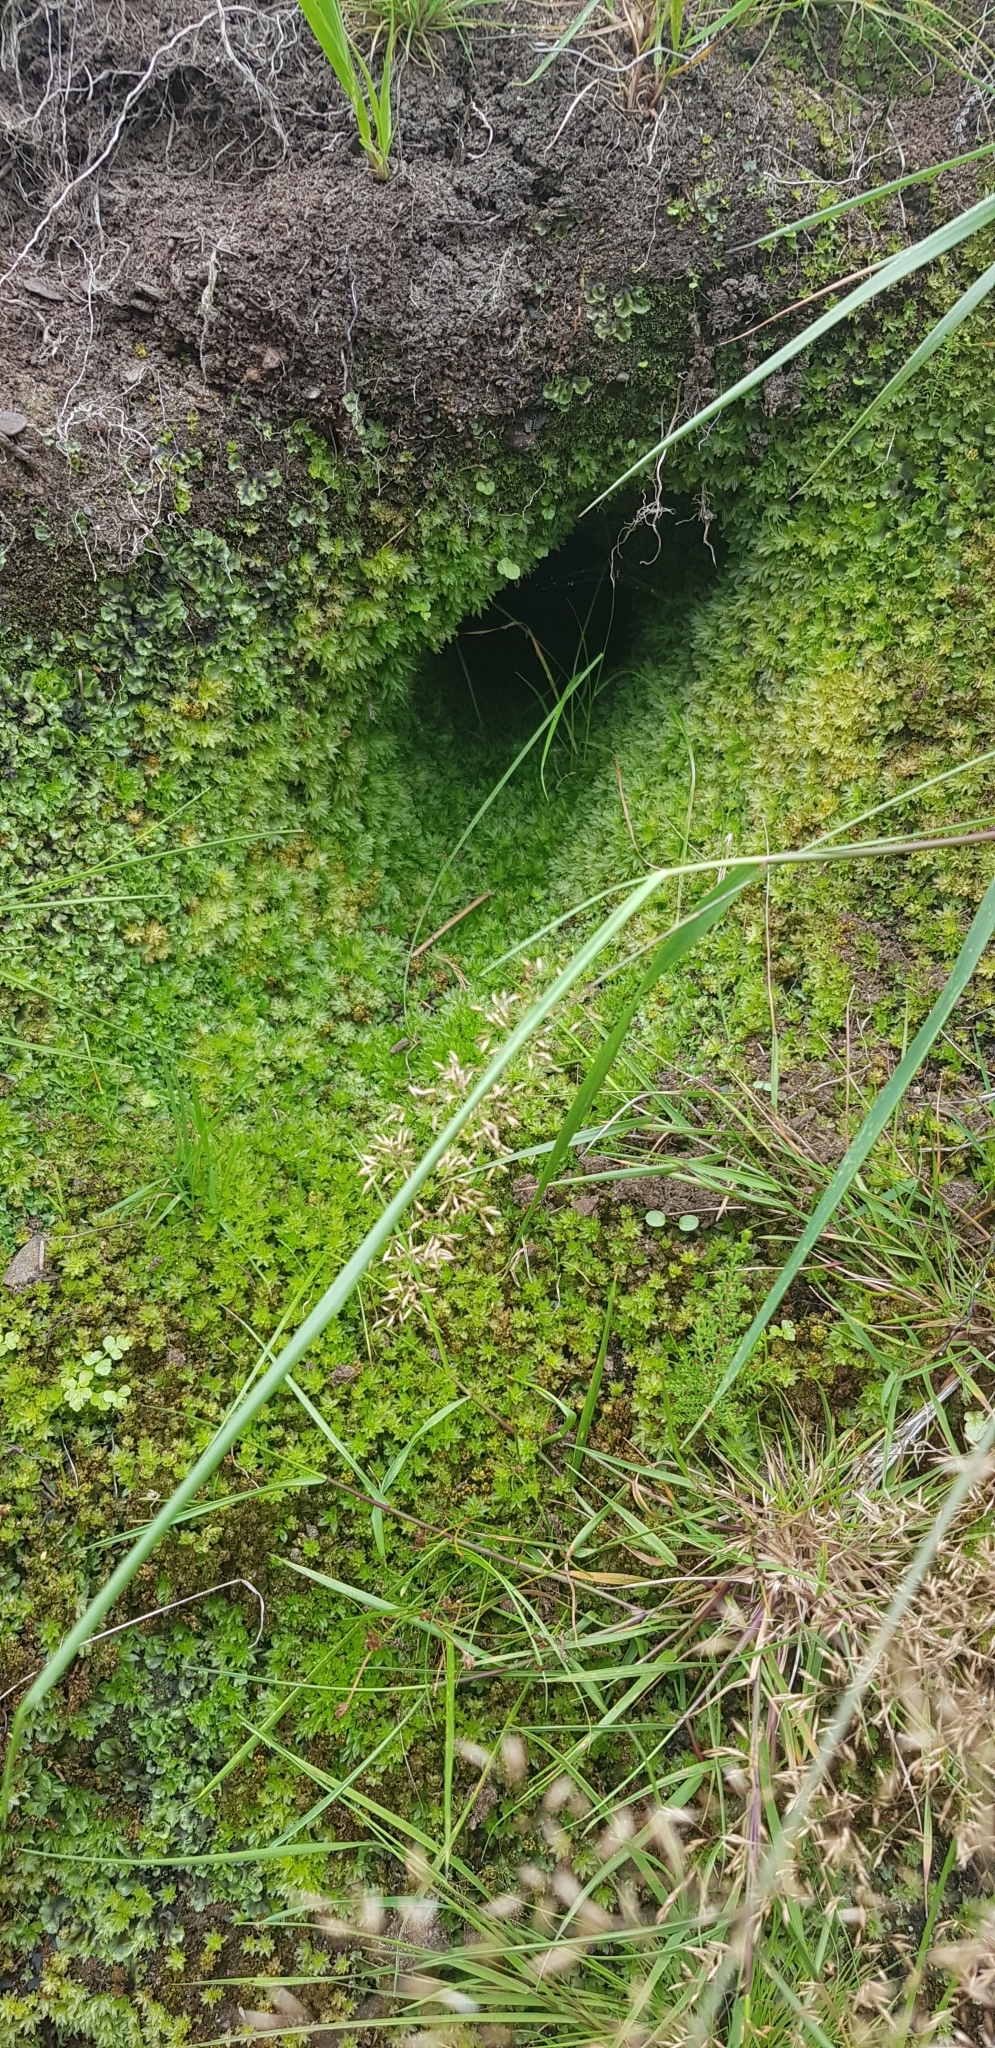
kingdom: Plantae
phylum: Bryophyta
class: Polytrichopsida
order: Polytrichales
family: Polytrichaceae
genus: Atrichum
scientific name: Atrichum crispum
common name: Fountain smoothcap
